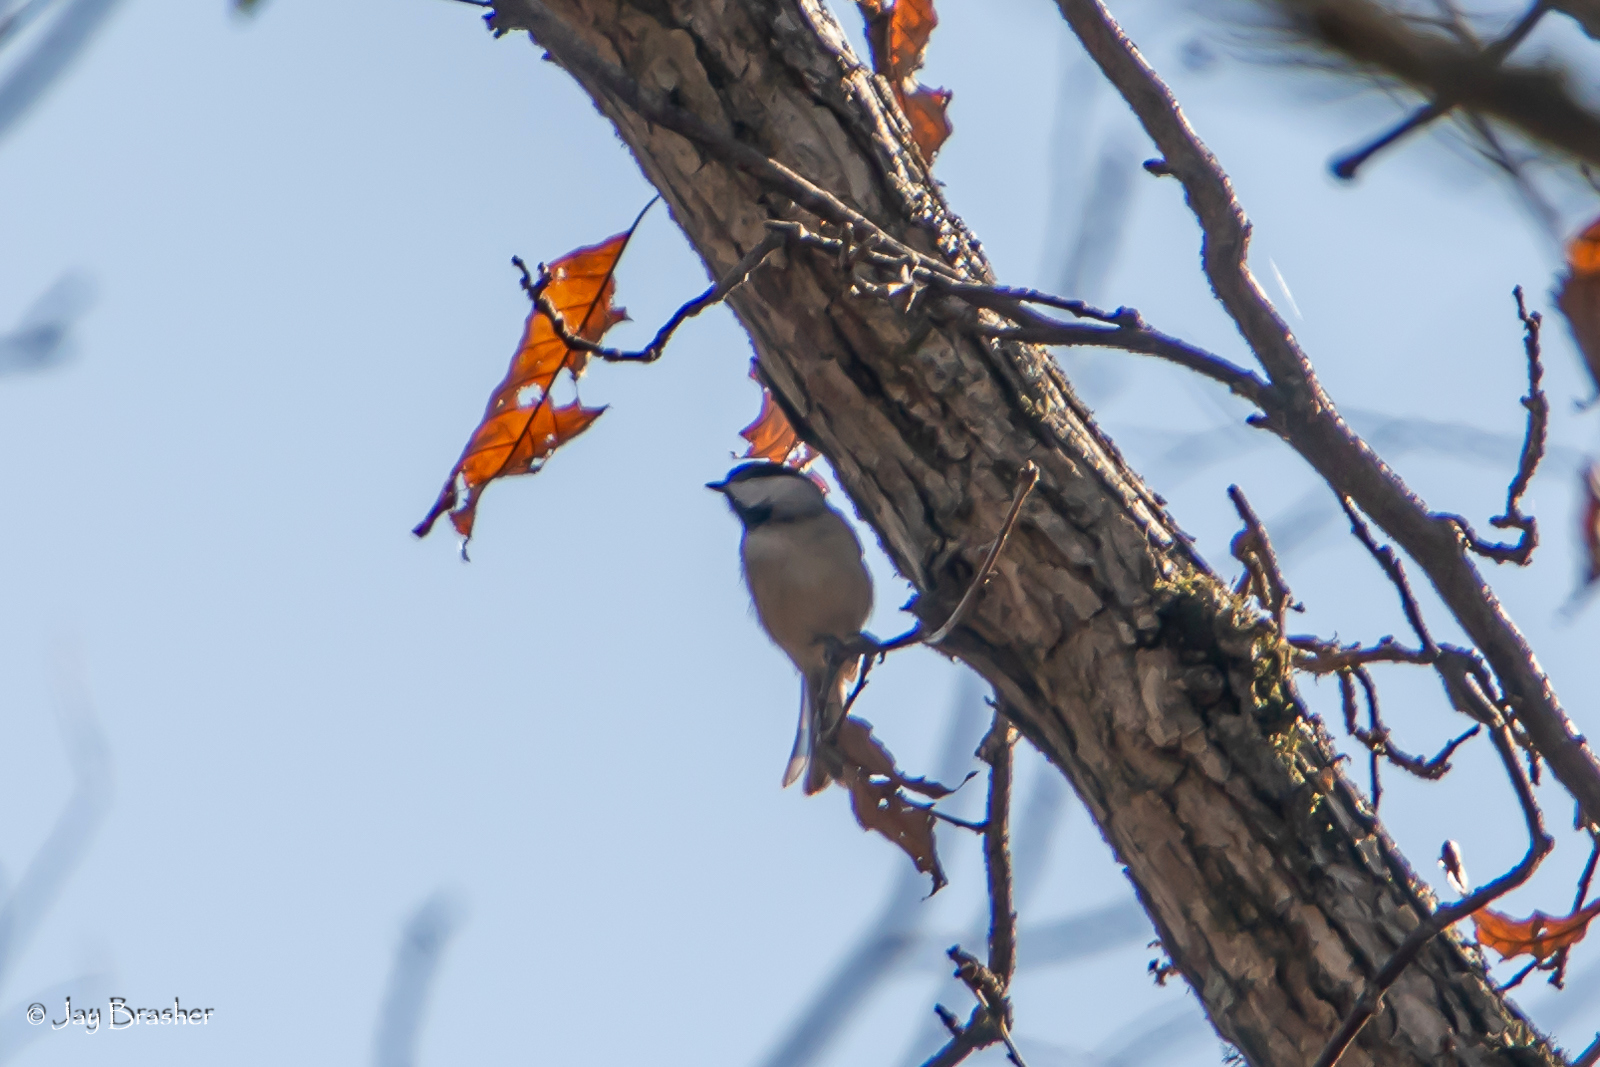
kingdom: Animalia
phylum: Chordata
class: Aves
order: Passeriformes
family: Paridae
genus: Poecile
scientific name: Poecile carolinensis
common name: Carolina chickadee
